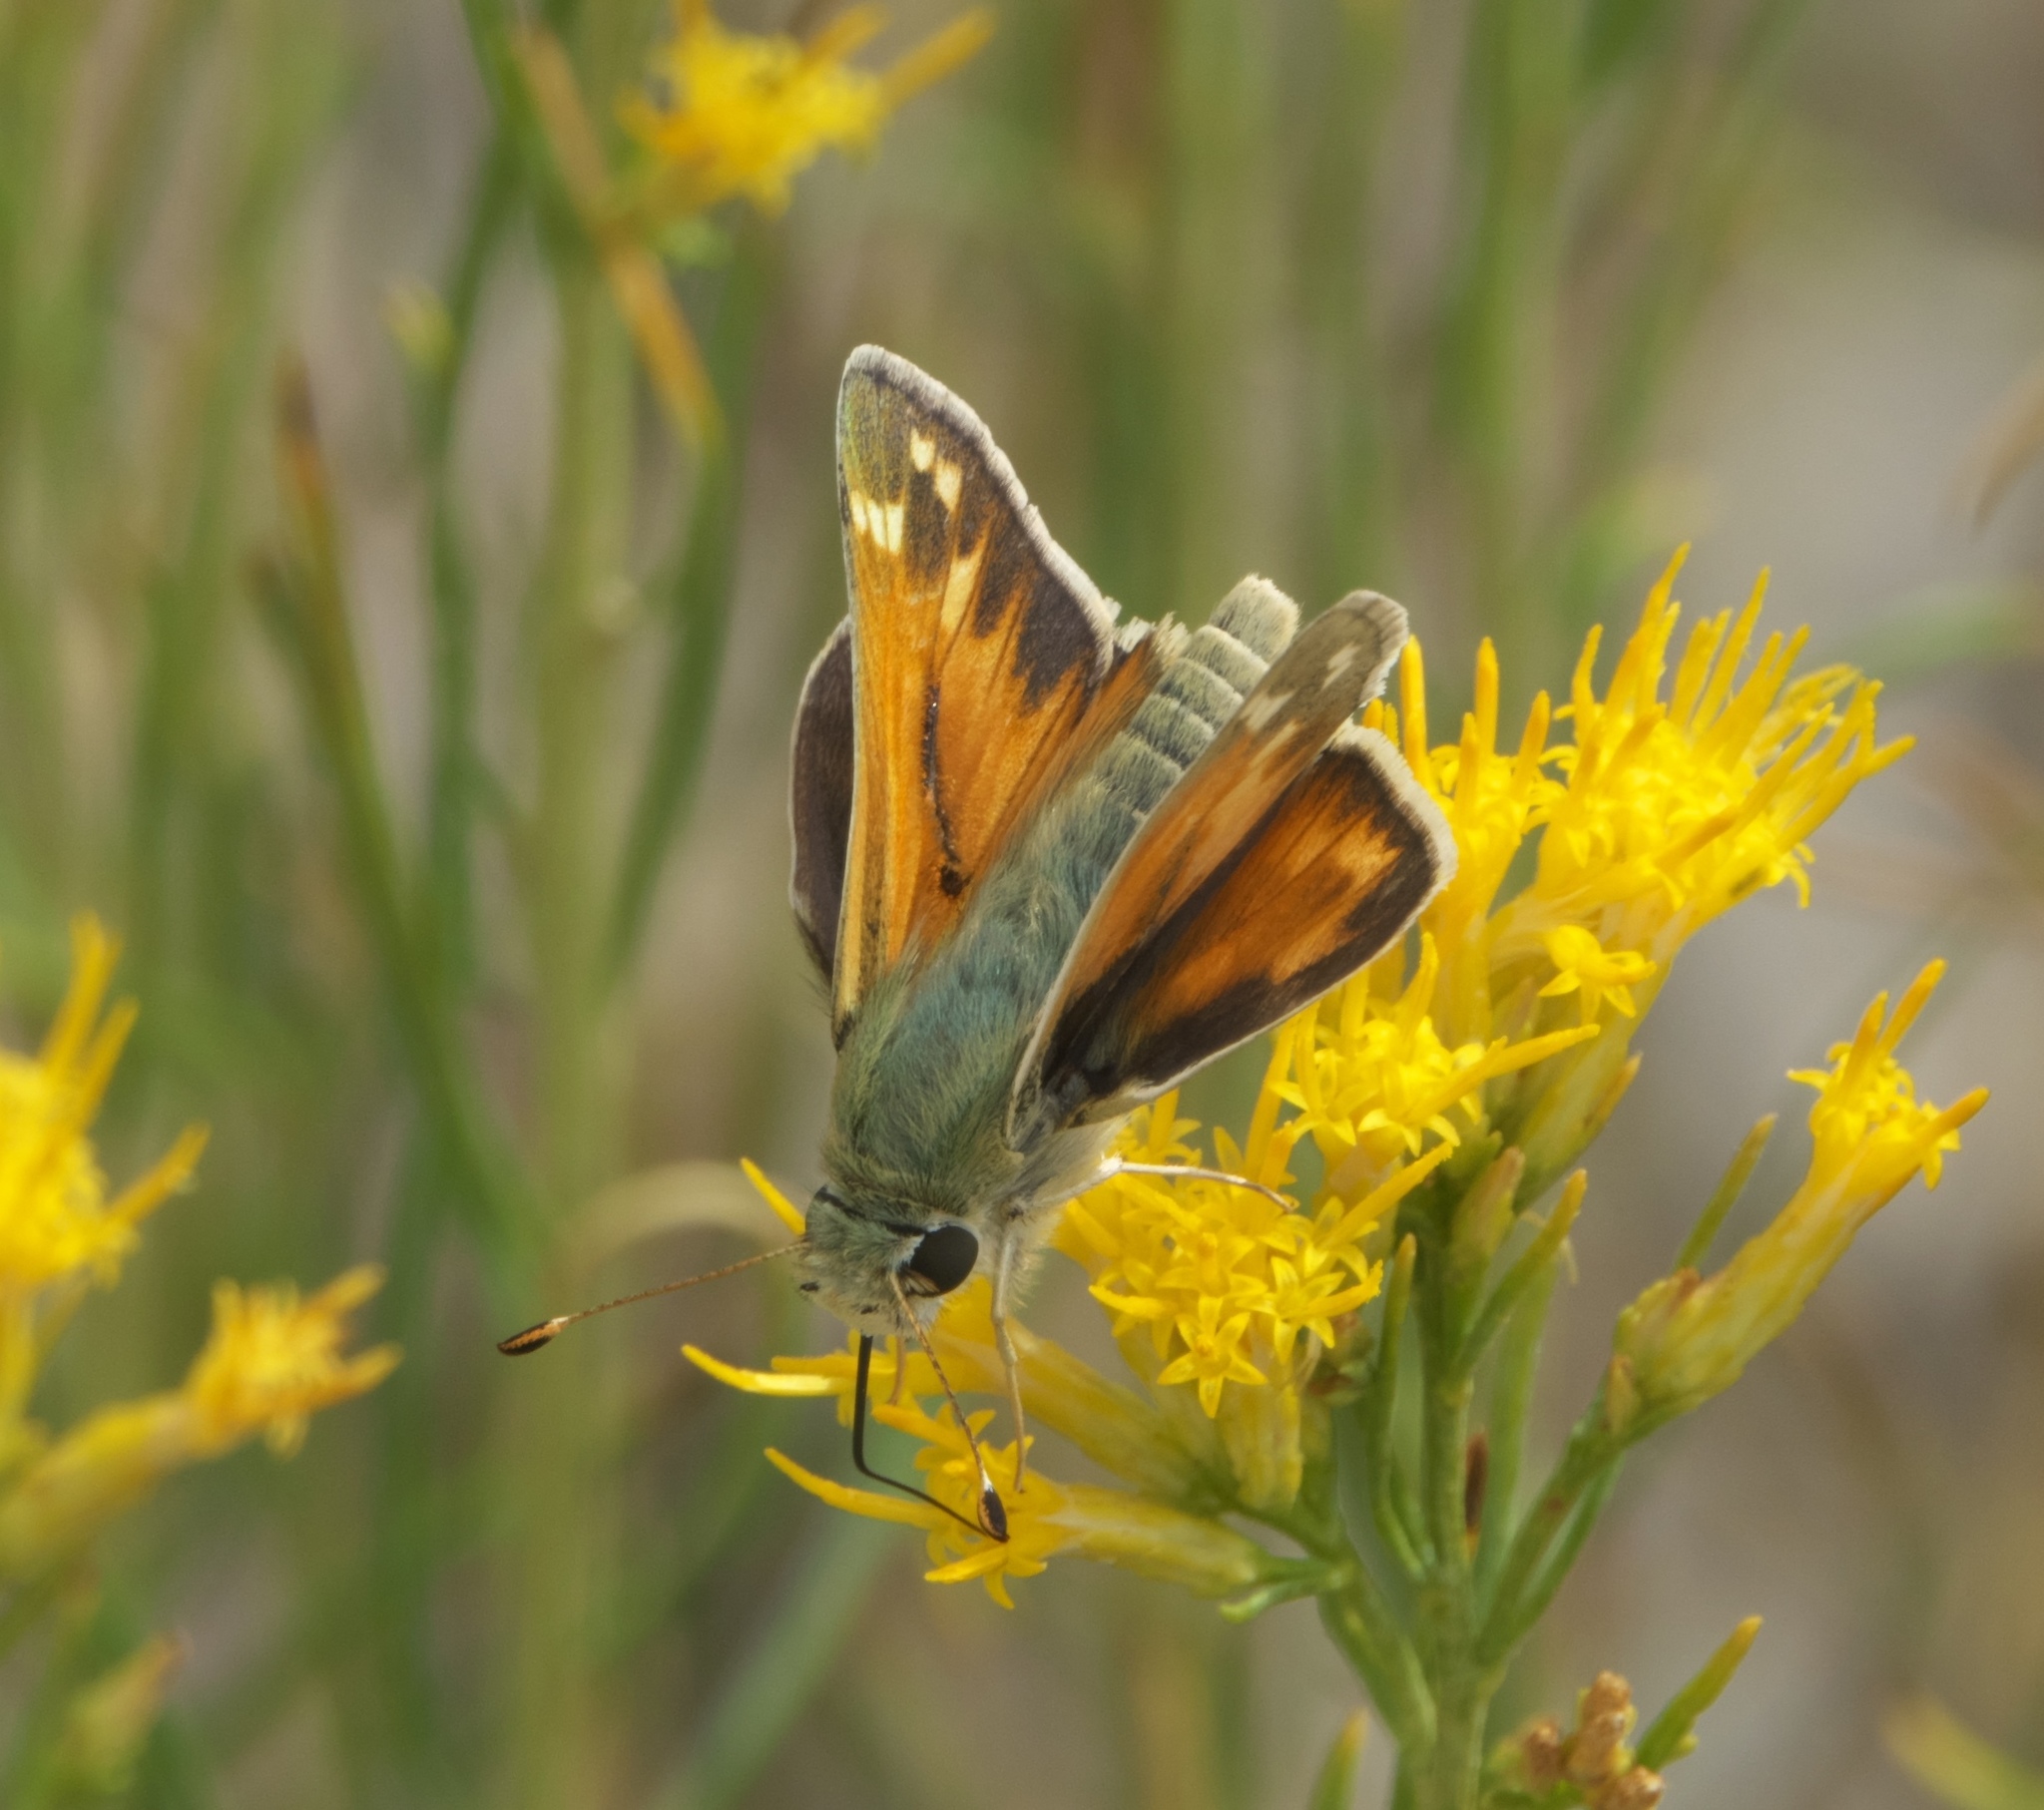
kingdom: Animalia
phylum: Arthropoda
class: Insecta
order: Lepidoptera
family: Hesperiidae
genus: Hesperia
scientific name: Hesperia juba
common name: Juba skipper
